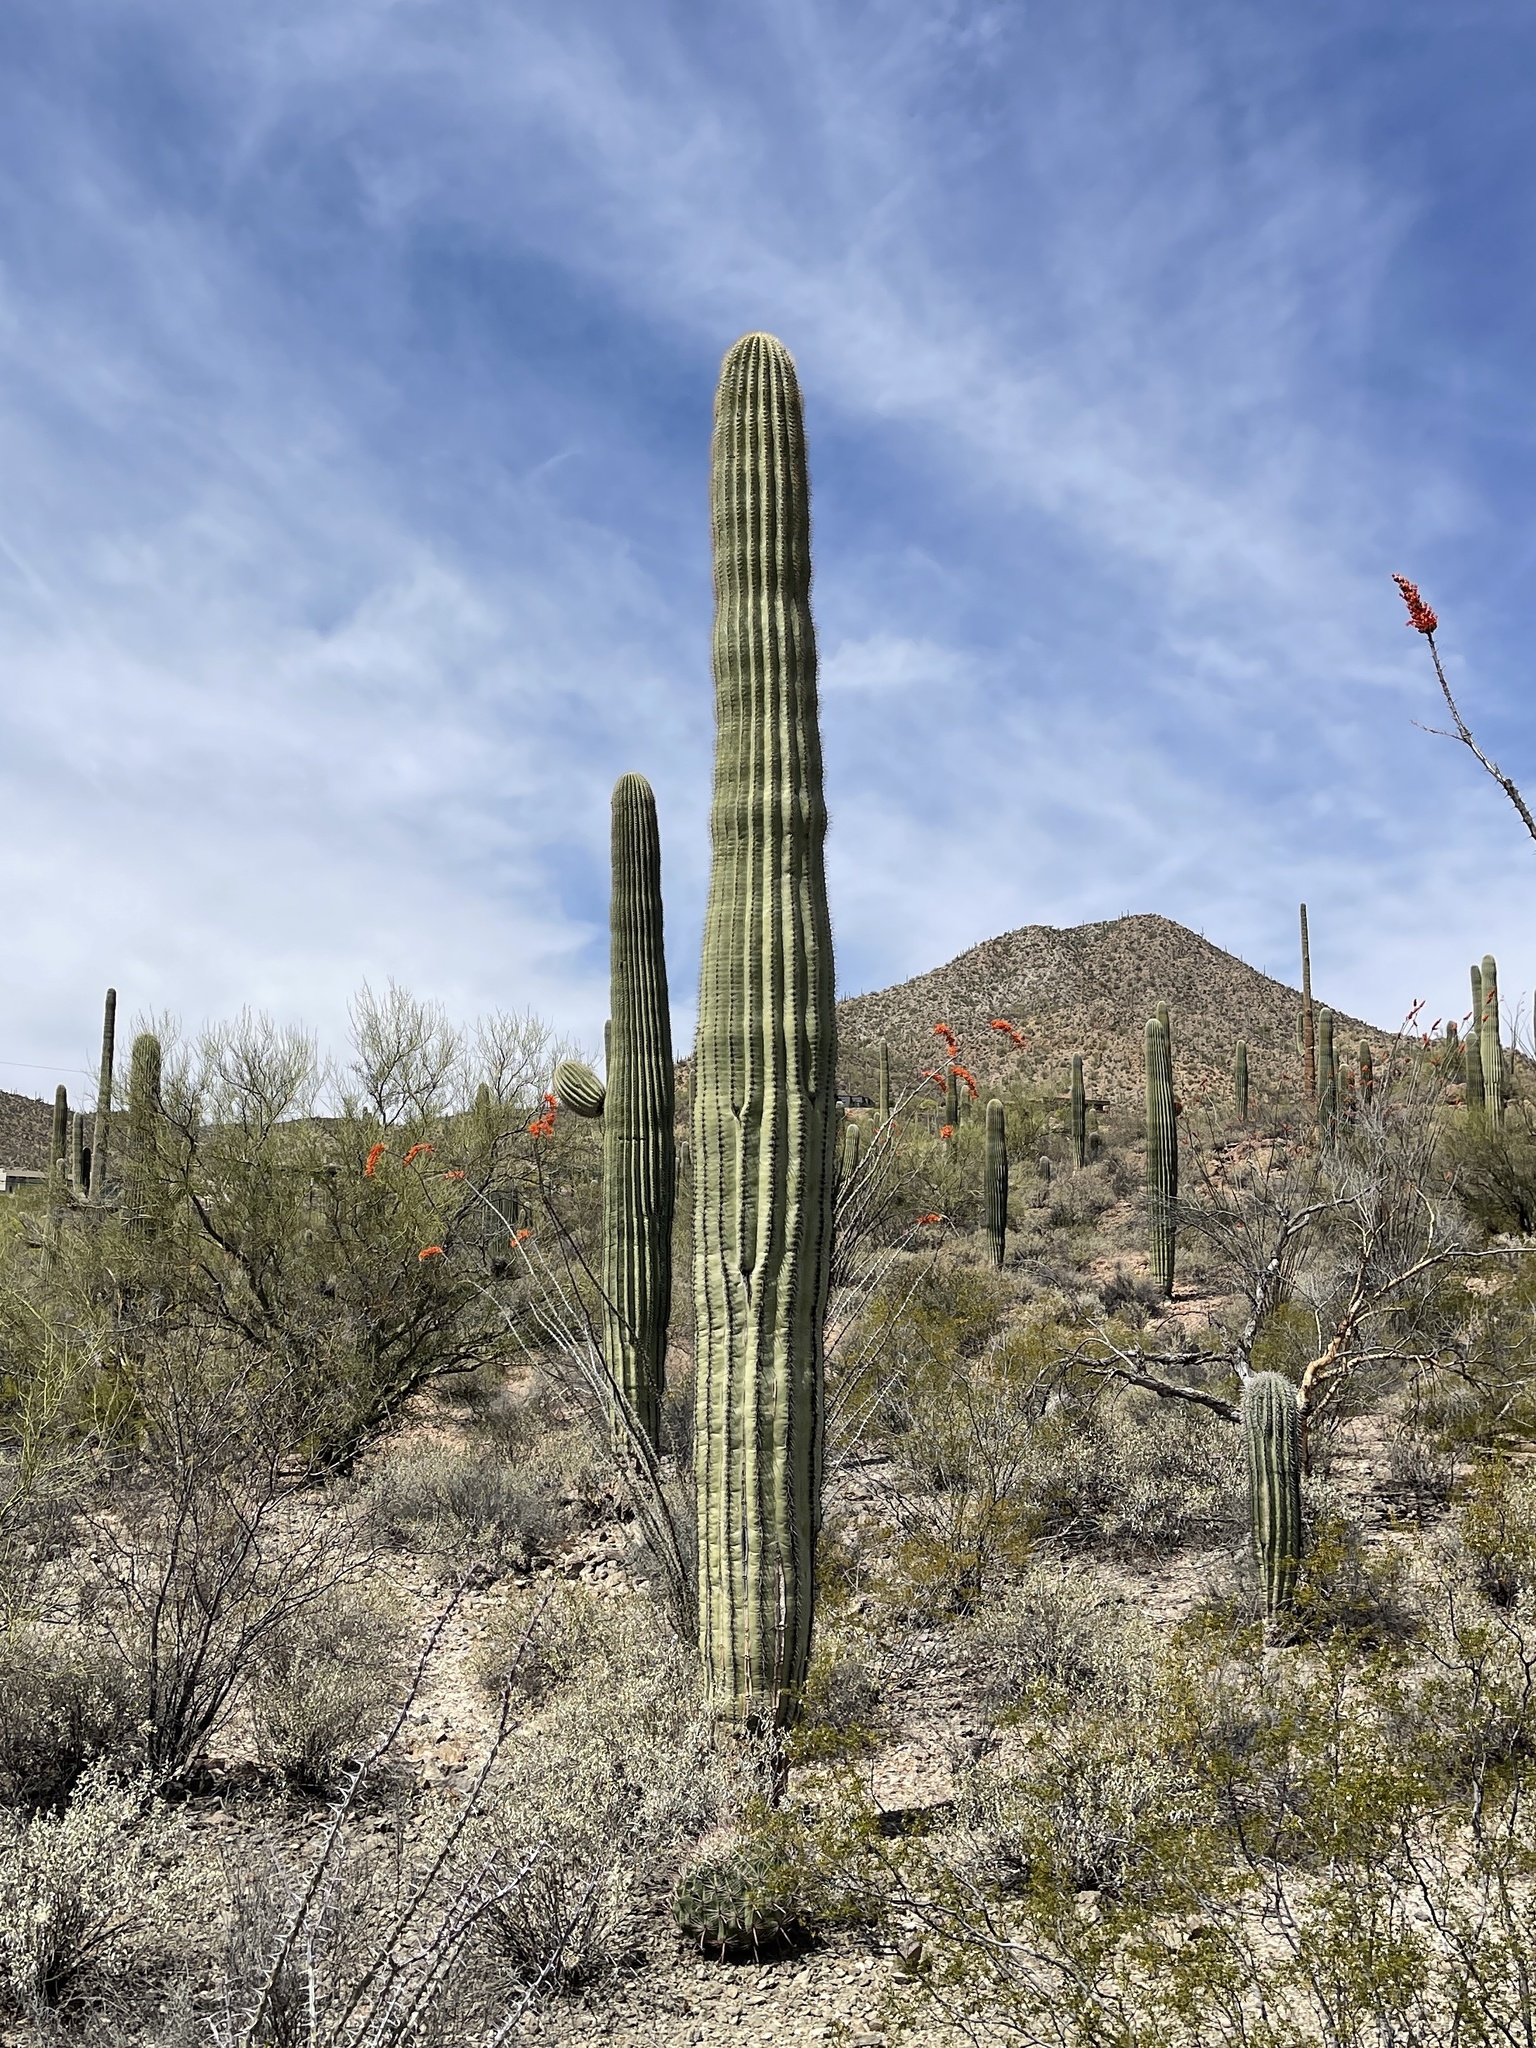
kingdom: Plantae
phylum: Tracheophyta
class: Magnoliopsida
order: Caryophyllales
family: Cactaceae
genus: Carnegiea
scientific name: Carnegiea gigantea
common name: Saguaro
